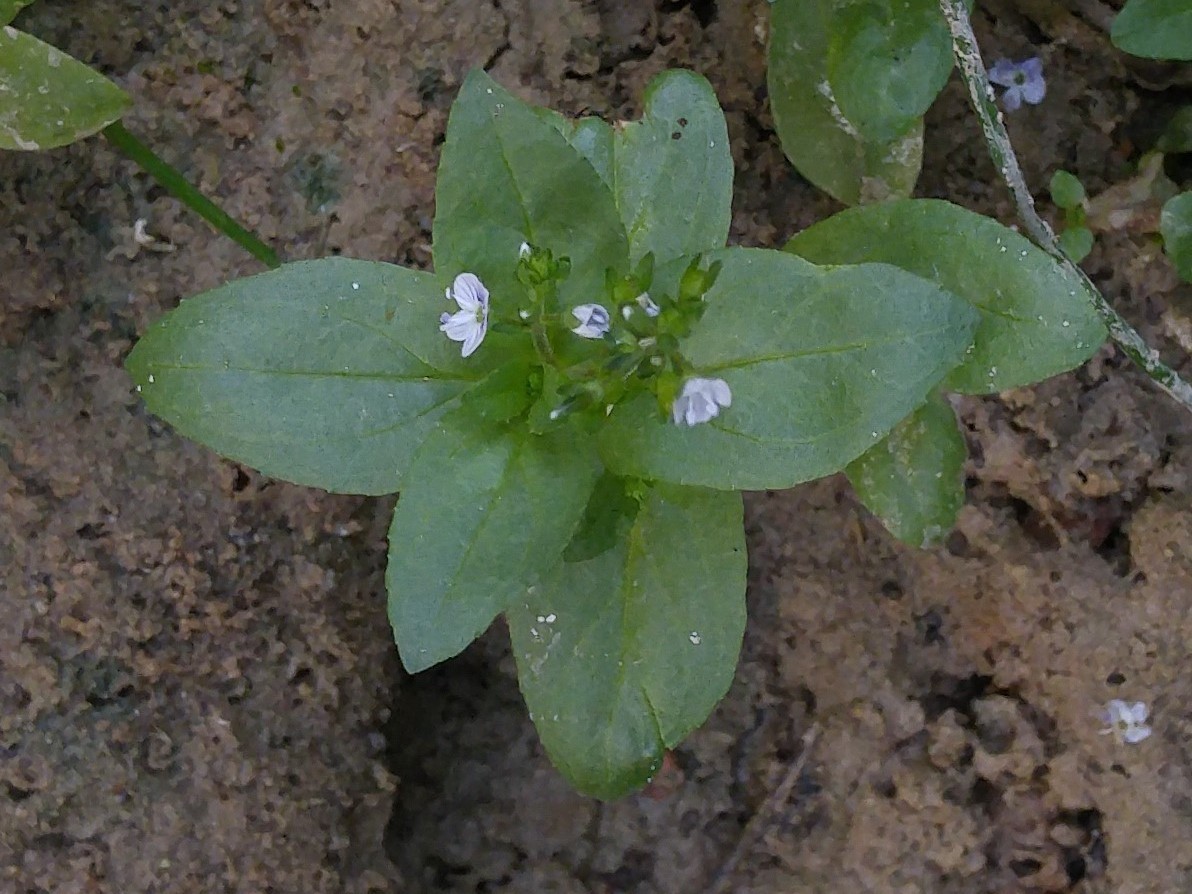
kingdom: Plantae
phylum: Tracheophyta
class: Magnoliopsida
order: Lamiales
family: Plantaginaceae
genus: Veronica
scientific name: Veronica anagallis-aquatica
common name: Water speedwell
